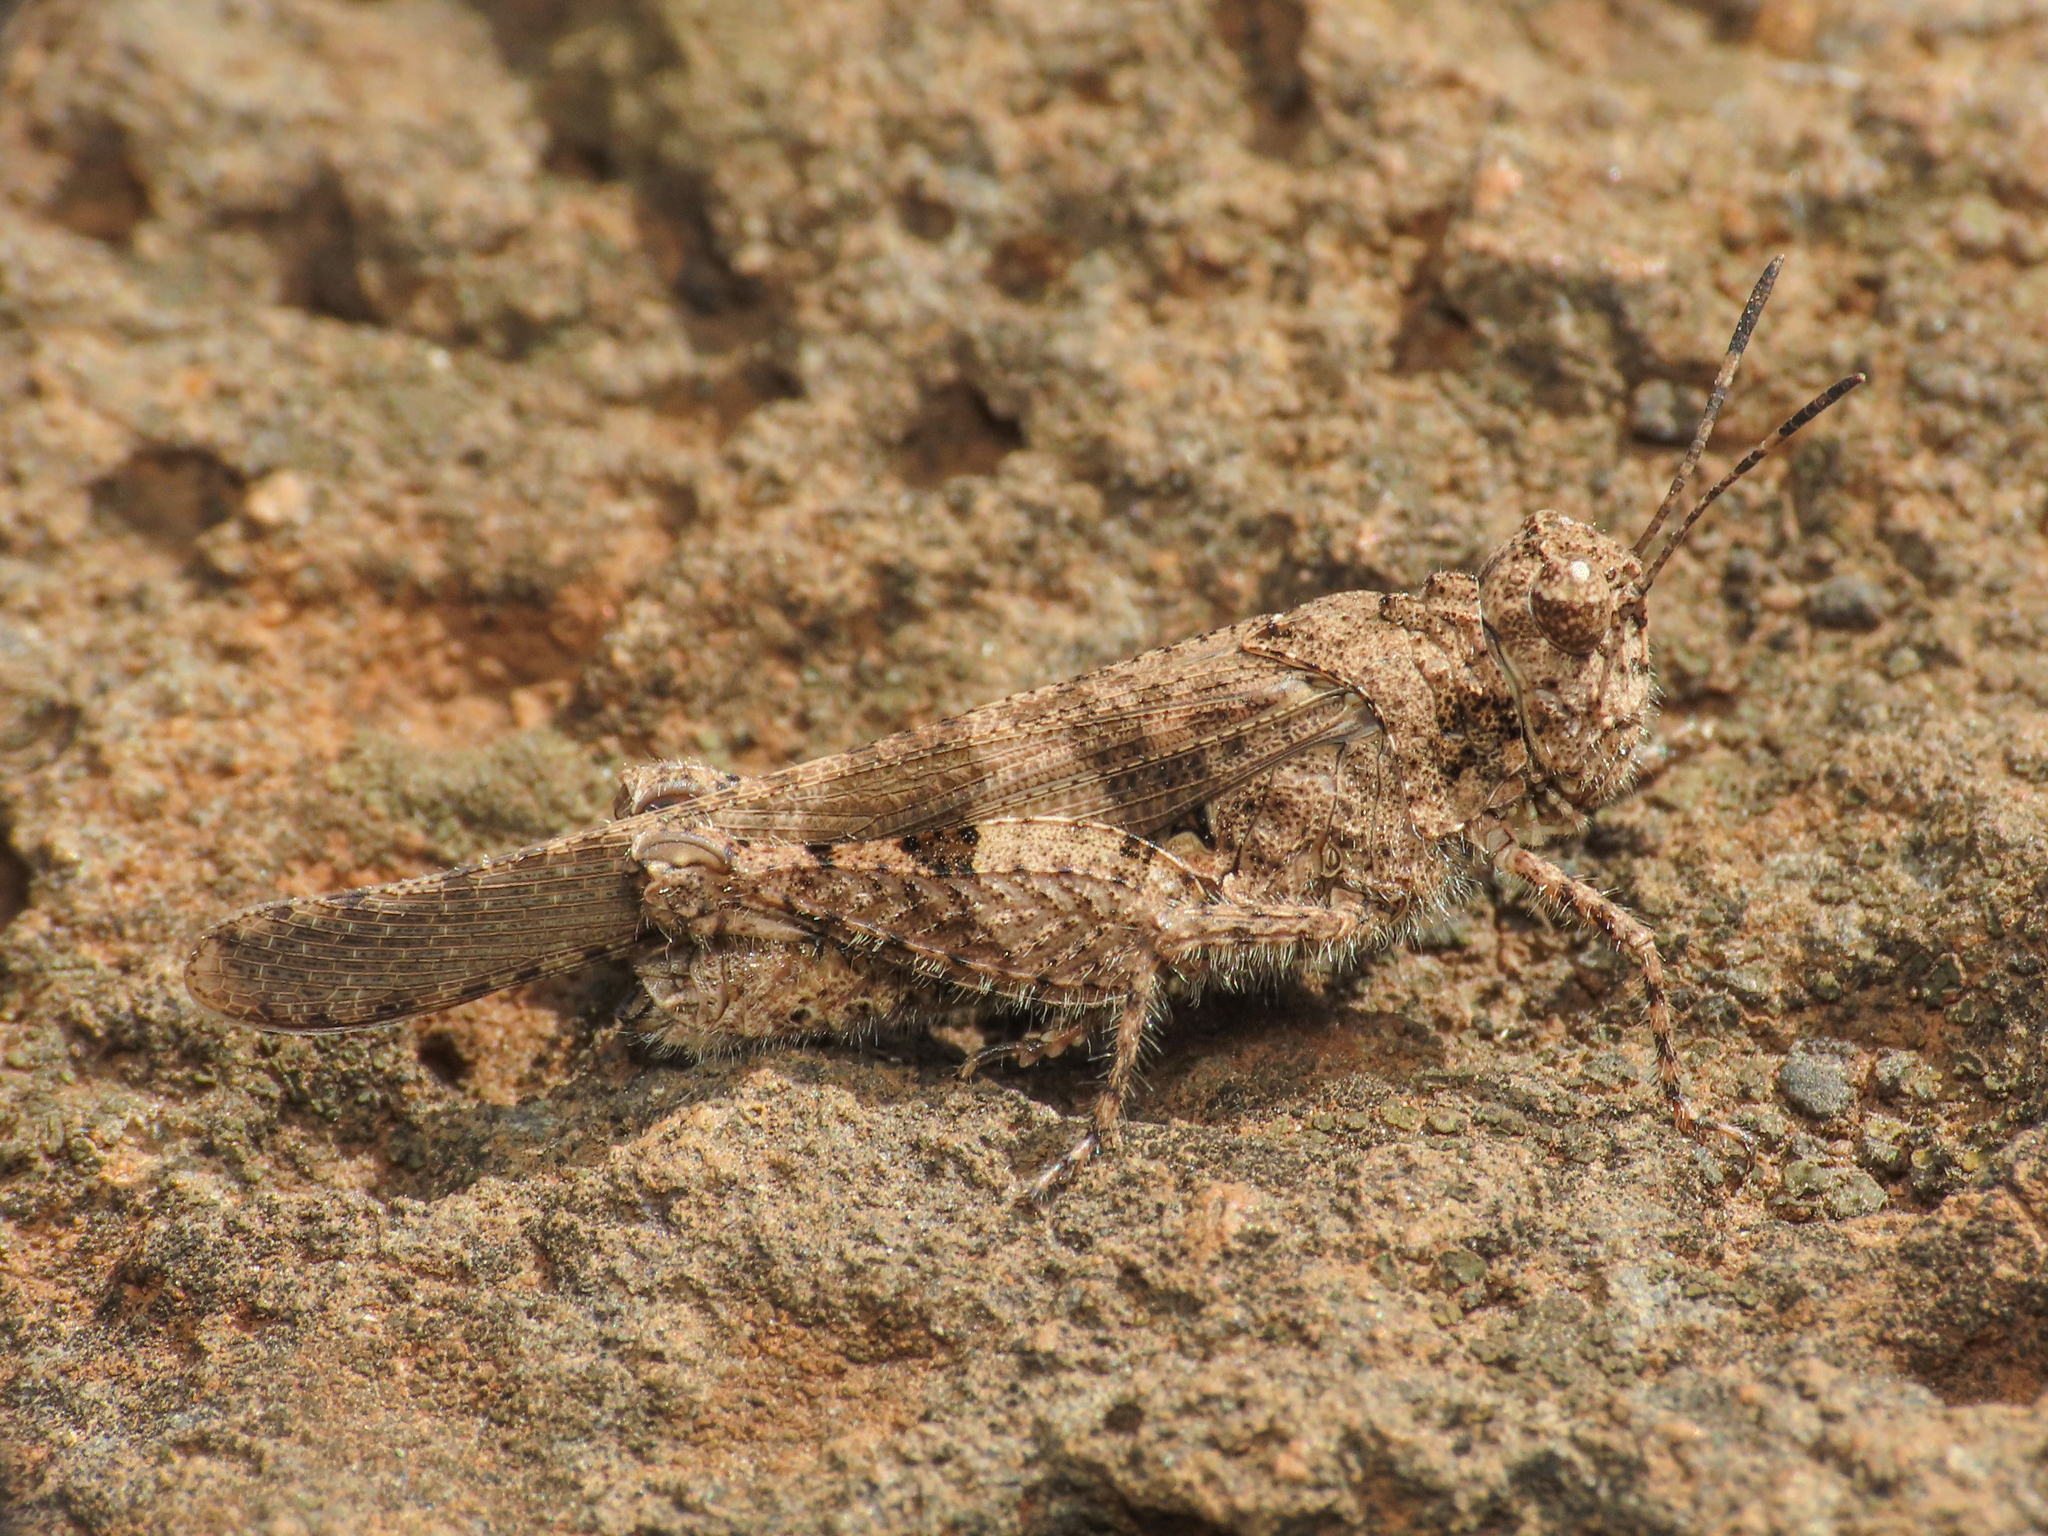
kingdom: Animalia
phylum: Arthropoda
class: Insecta
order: Orthoptera
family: Acrididae
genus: Trilophidia
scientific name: Trilophidia conturbata
